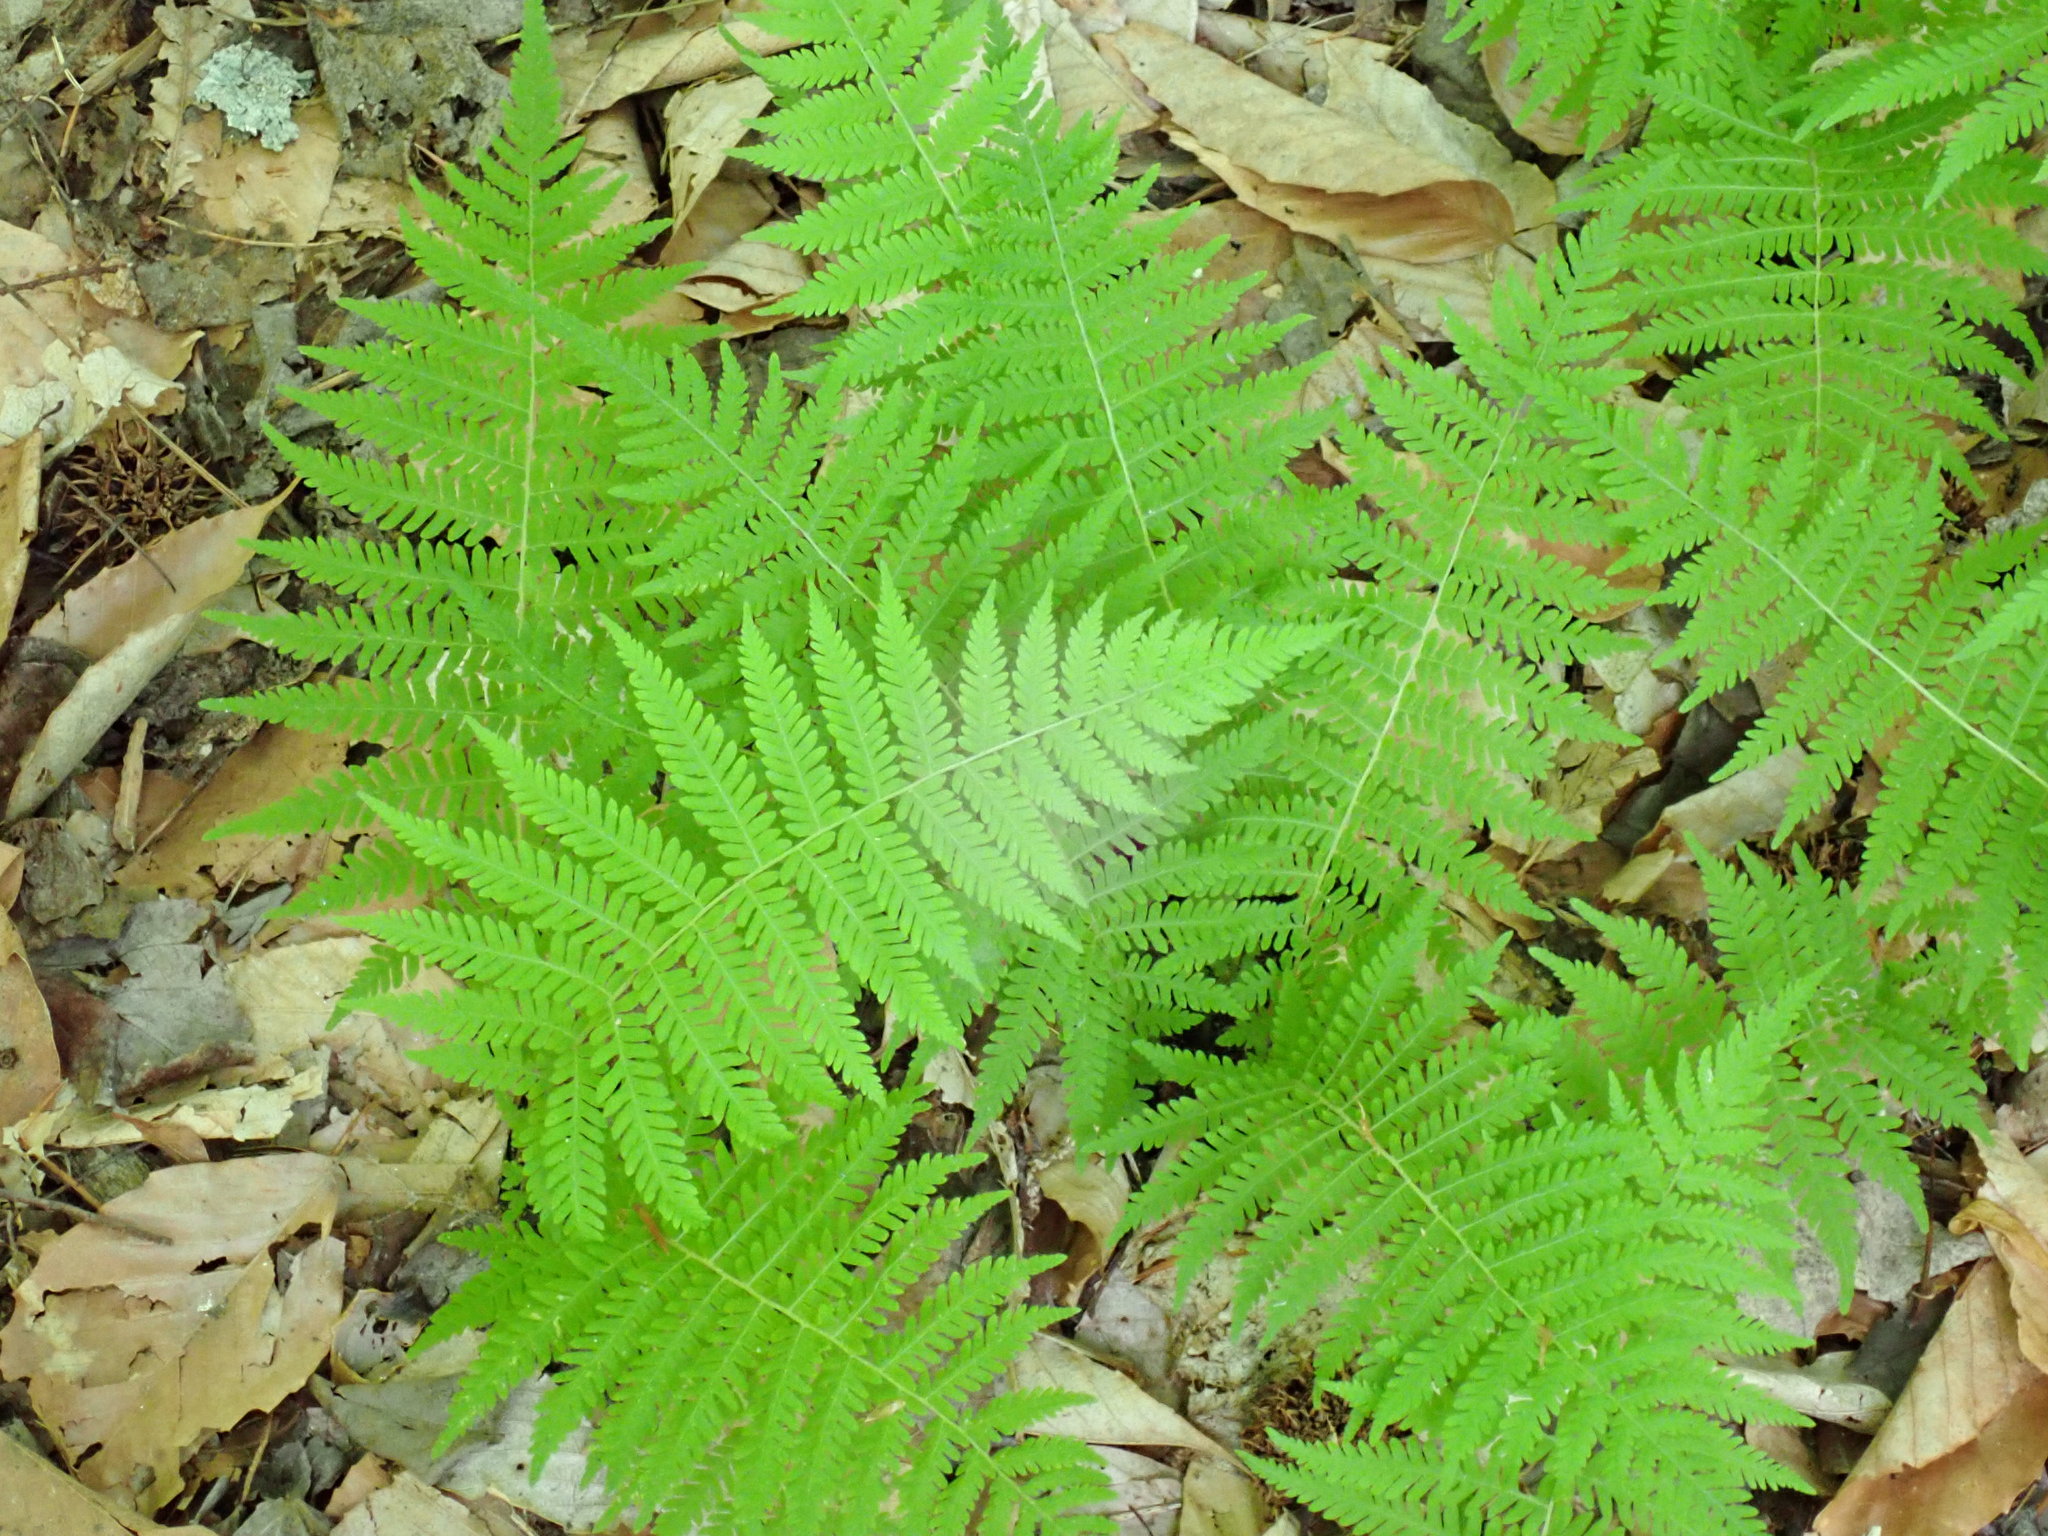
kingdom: Plantae
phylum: Tracheophyta
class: Polypodiopsida
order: Polypodiales
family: Thelypteridaceae
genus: Amauropelta
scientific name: Amauropelta noveboracensis
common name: New york fern
